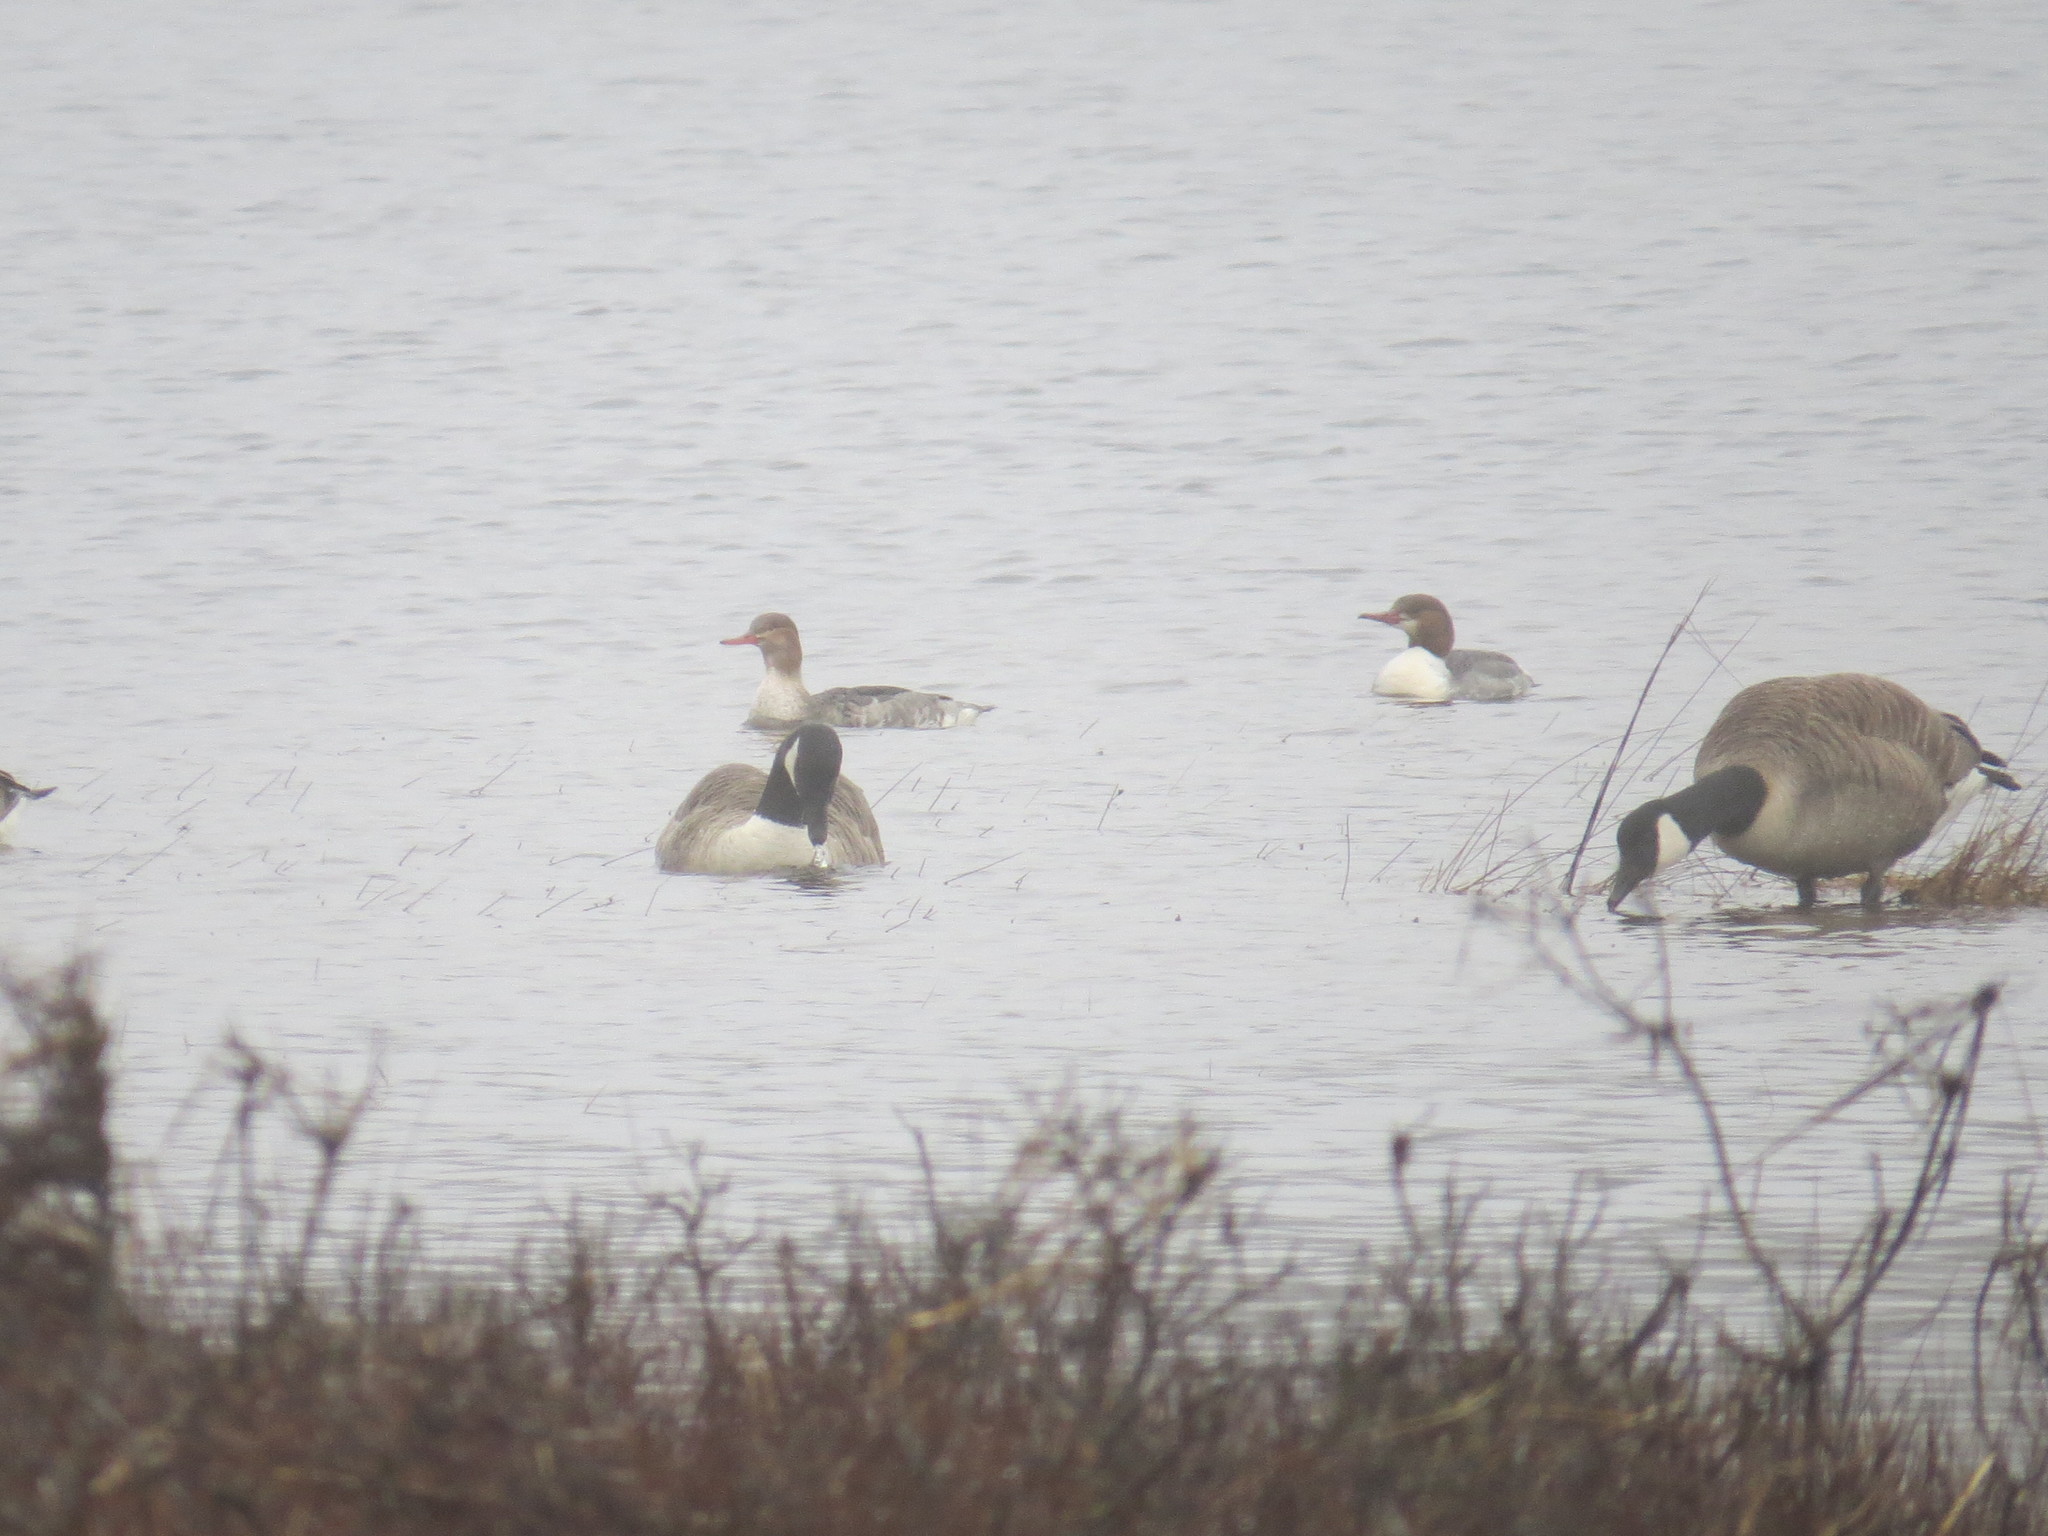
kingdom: Animalia
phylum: Chordata
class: Aves
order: Anseriformes
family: Anatidae
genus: Branta
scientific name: Branta canadensis
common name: Canada goose
